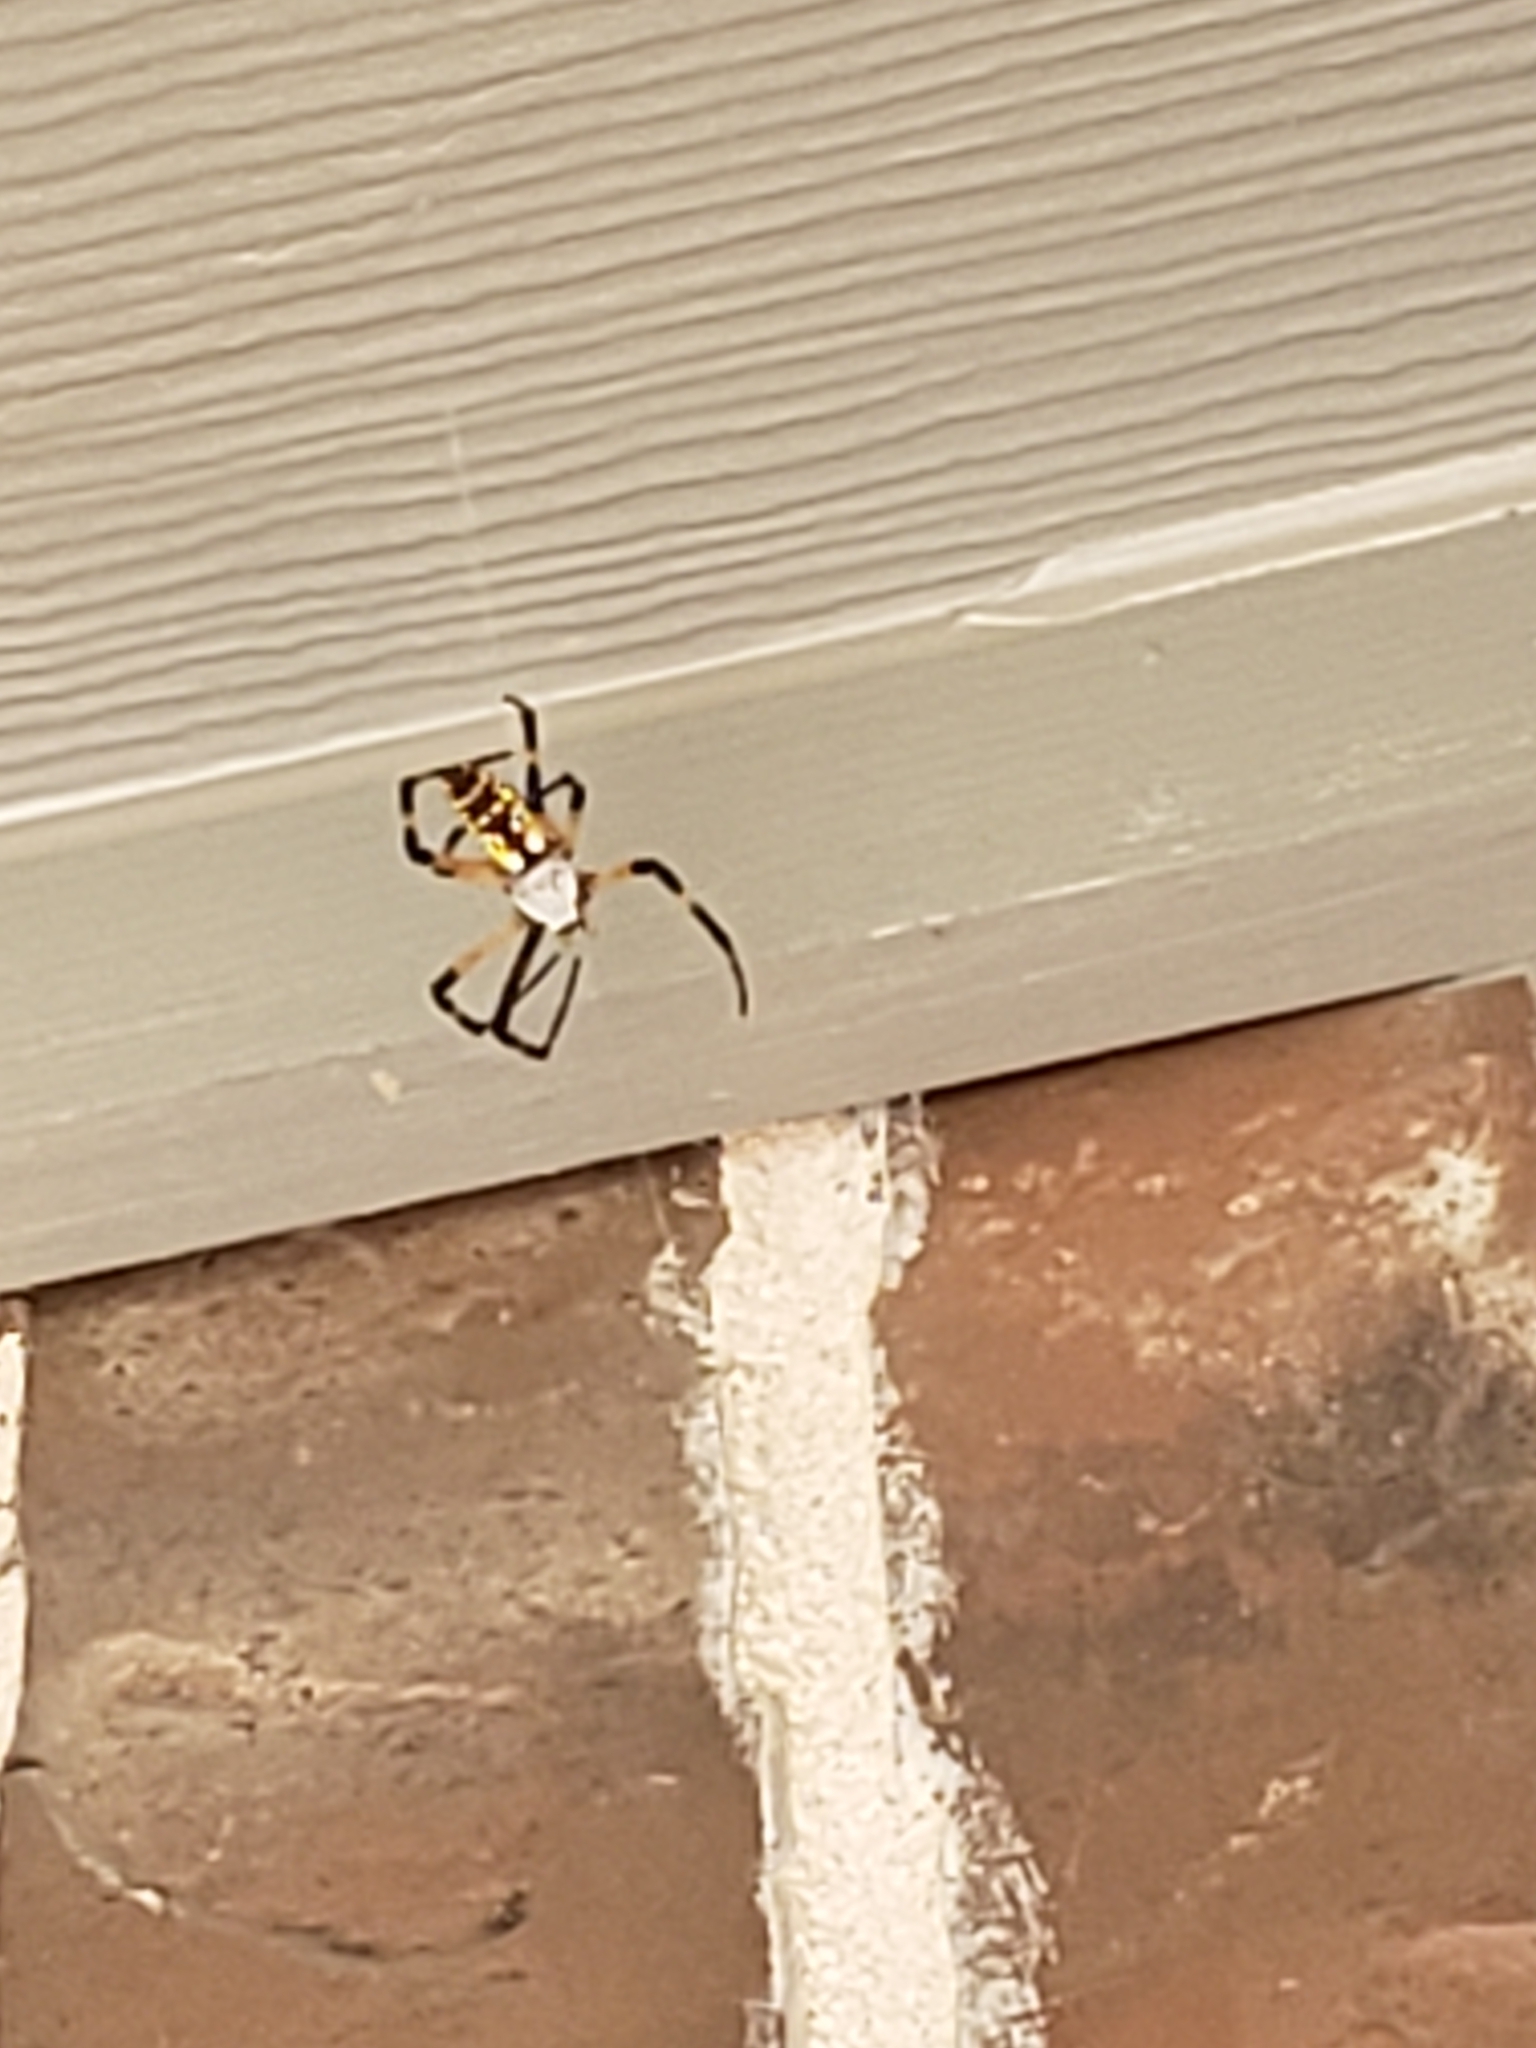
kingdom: Animalia
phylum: Arthropoda
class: Arachnida
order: Araneae
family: Araneidae
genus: Argiope
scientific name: Argiope aurantia
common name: Orb weavers
